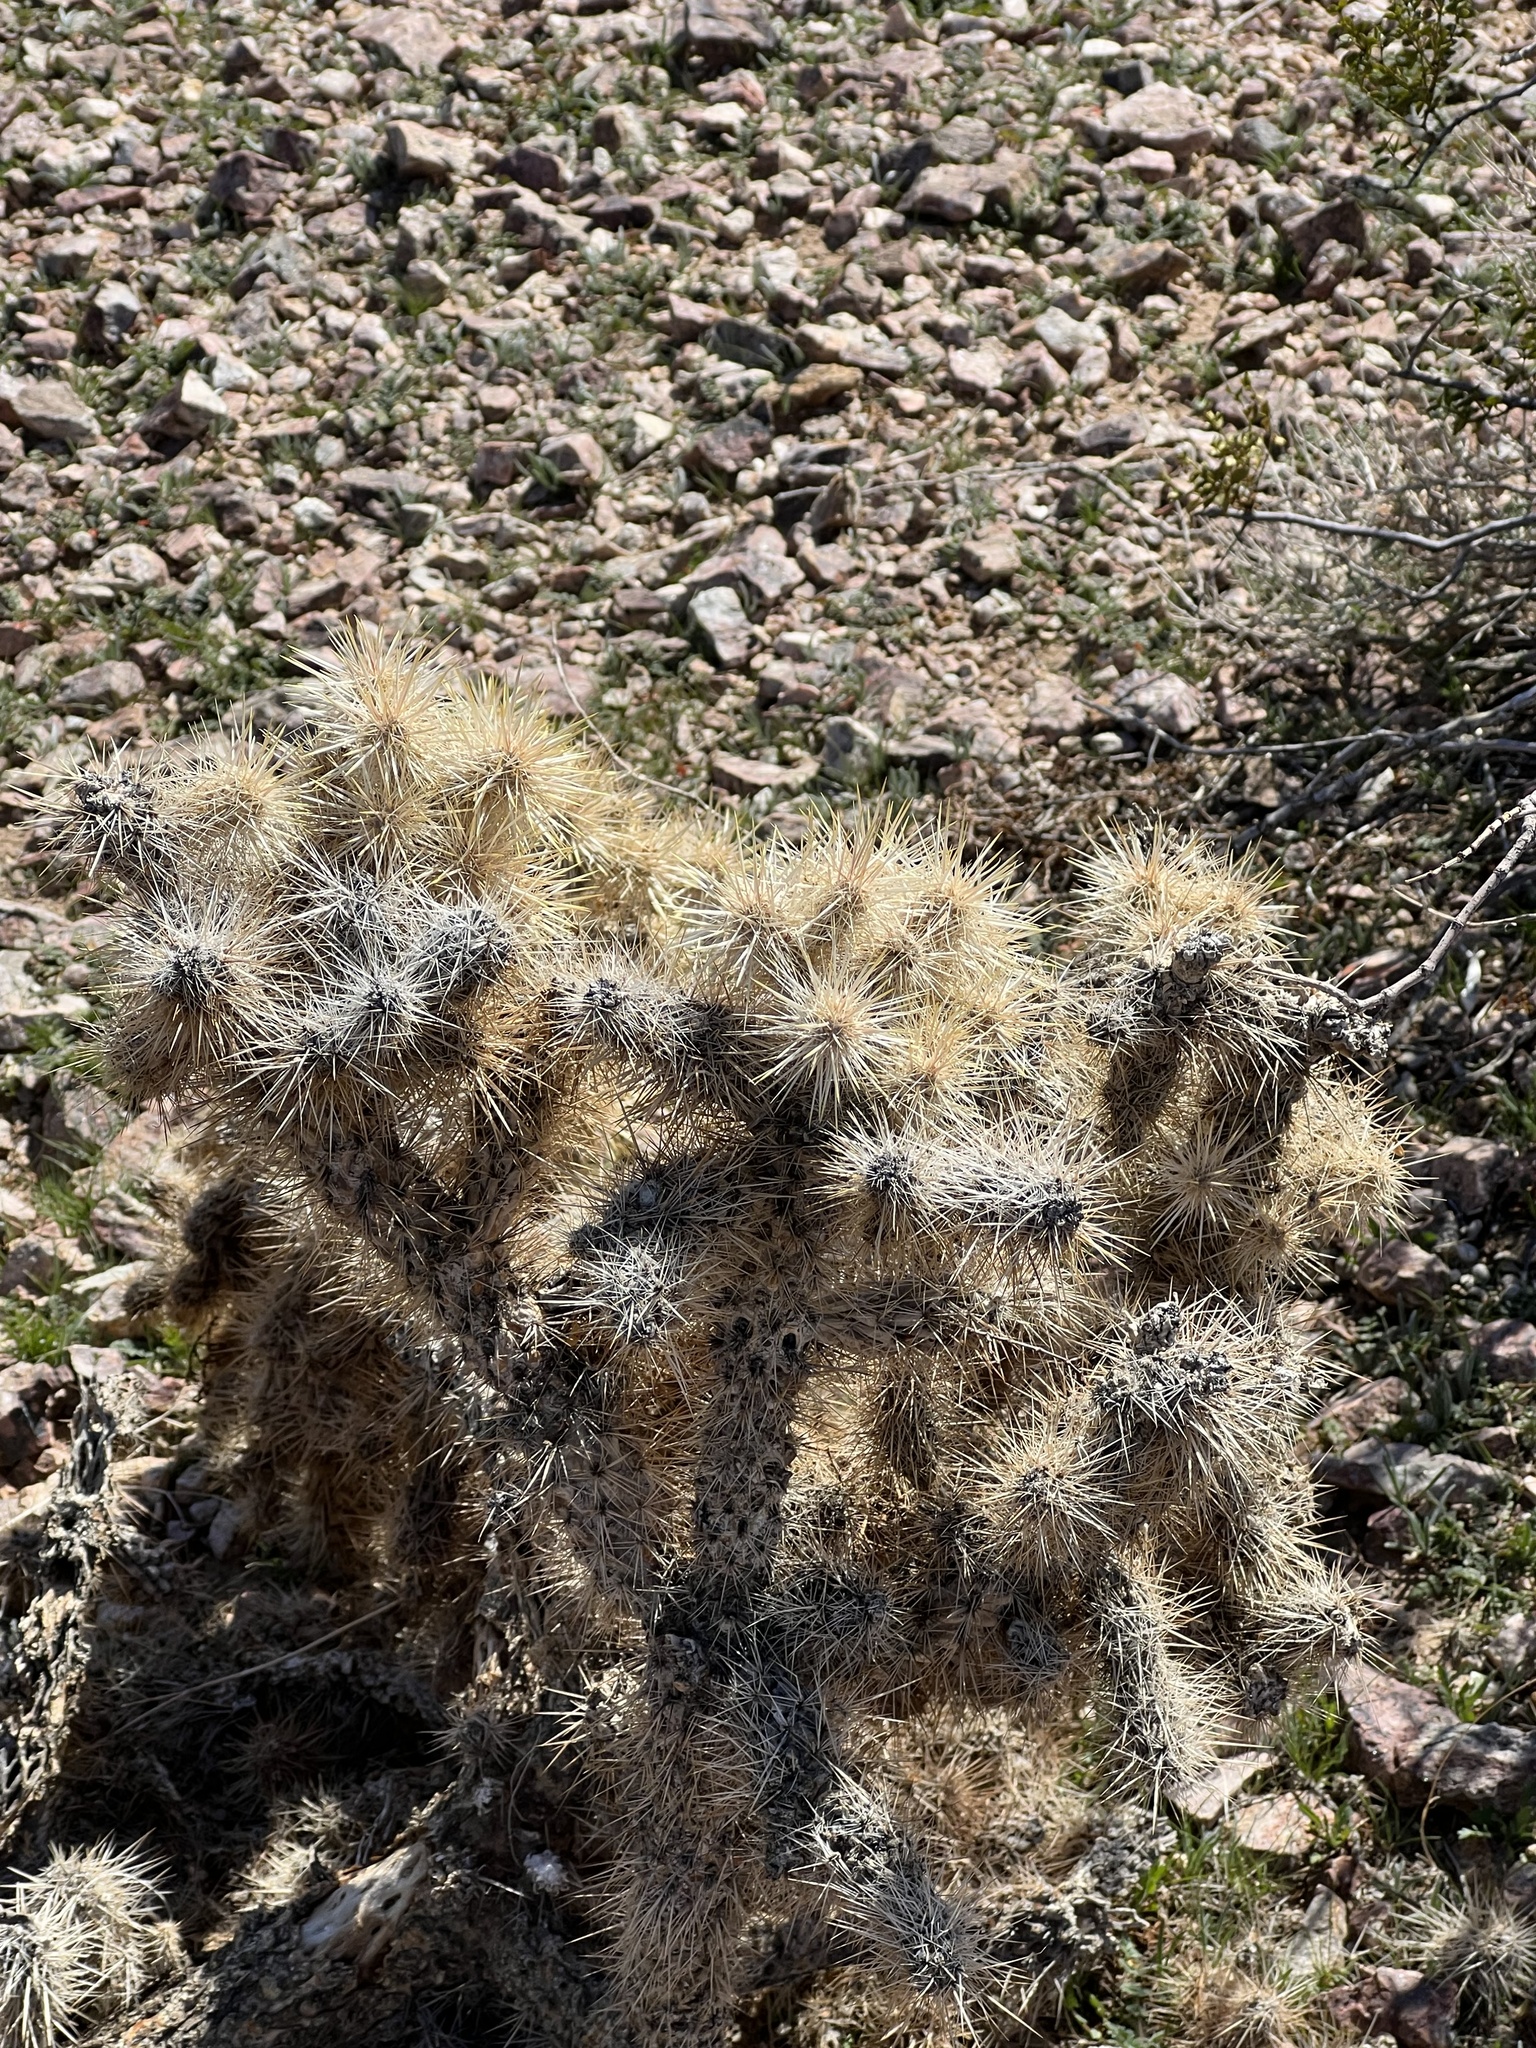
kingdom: Plantae
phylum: Tracheophyta
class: Magnoliopsida
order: Caryophyllales
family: Cactaceae
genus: Cylindropuntia
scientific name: Cylindropuntia echinocarpa
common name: Ground cholla
